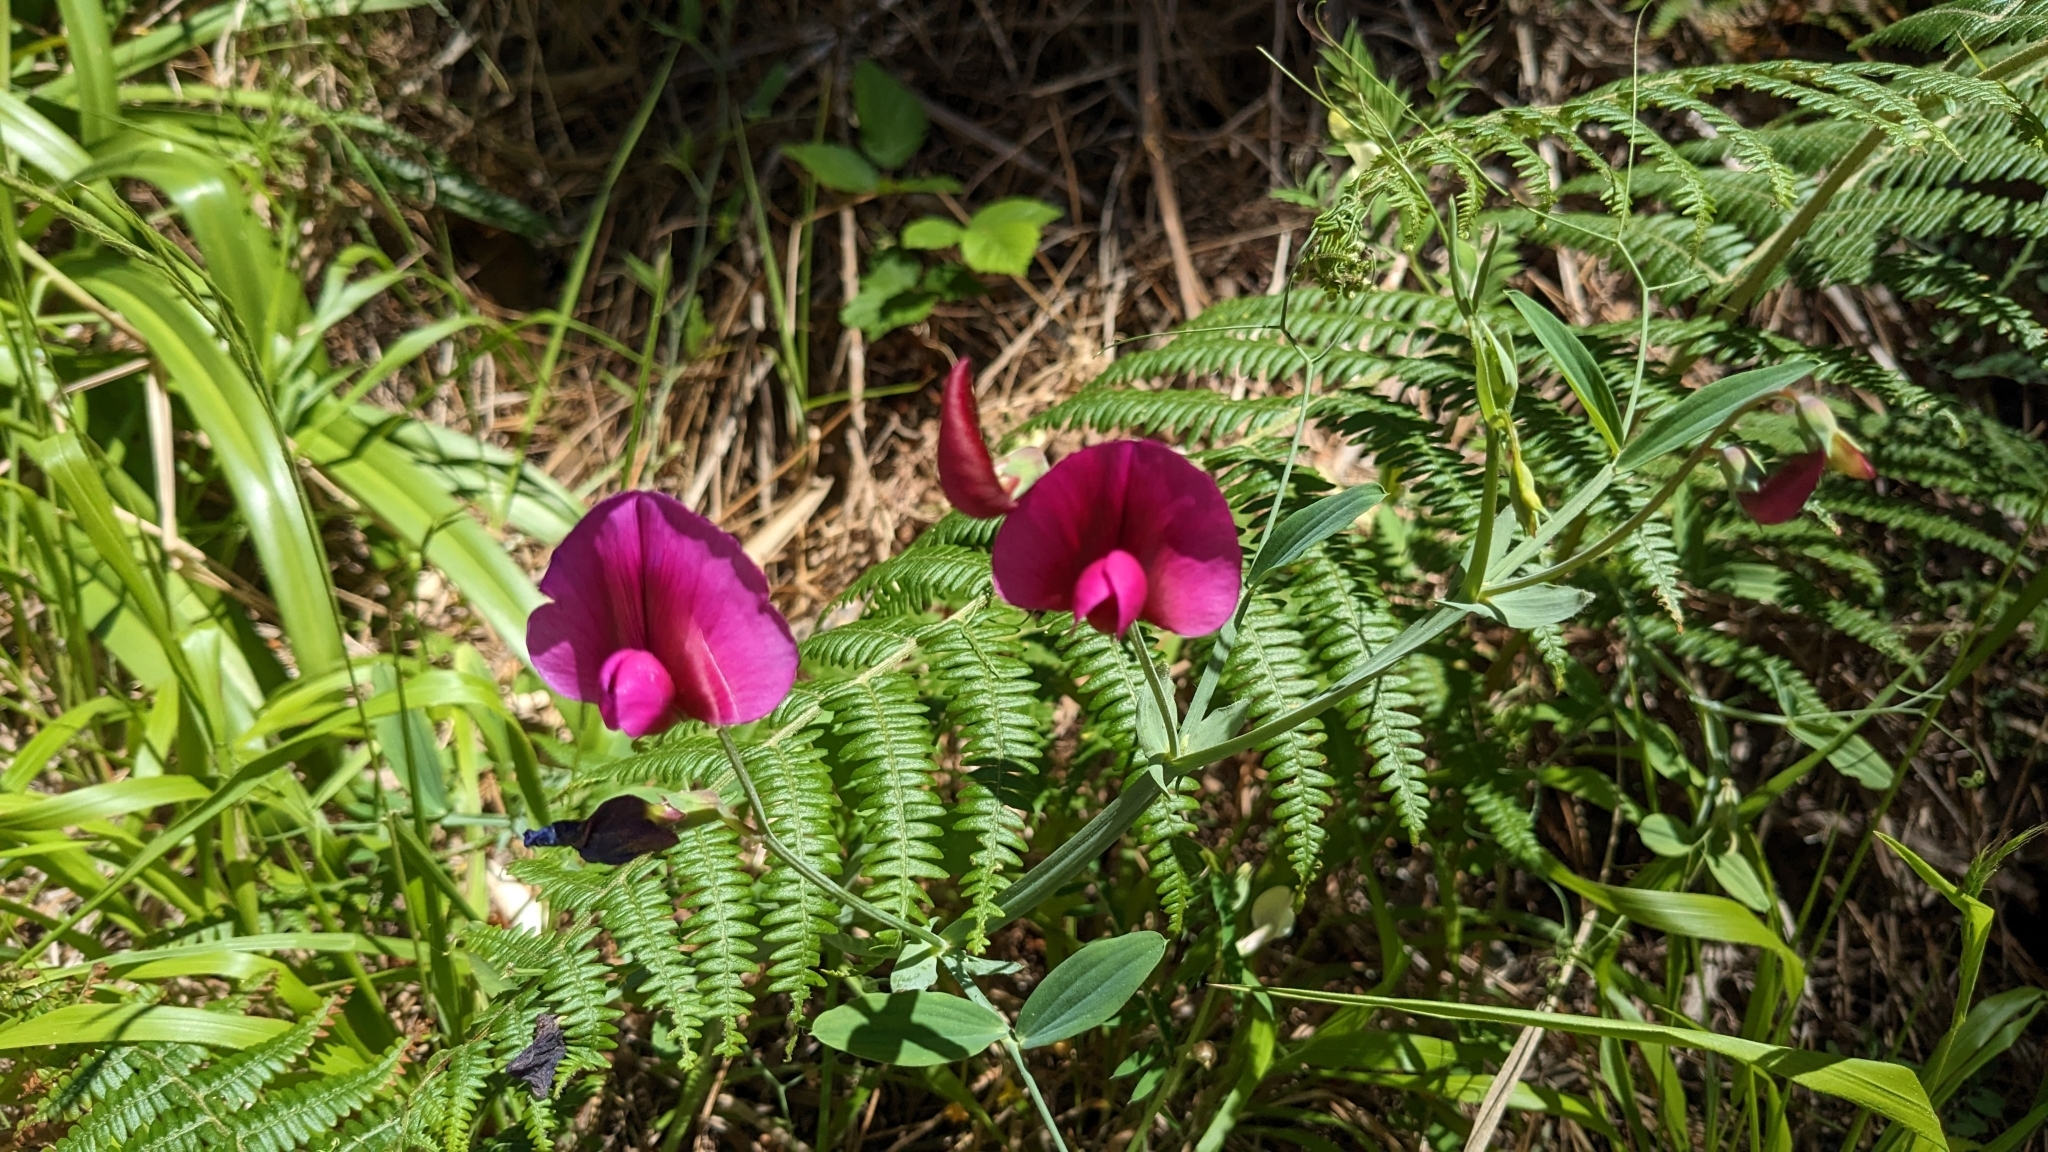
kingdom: Plantae
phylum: Tracheophyta
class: Magnoliopsida
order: Fabales
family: Fabaceae
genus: Lathyrus
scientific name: Lathyrus tingitanus
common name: Tangier pea
